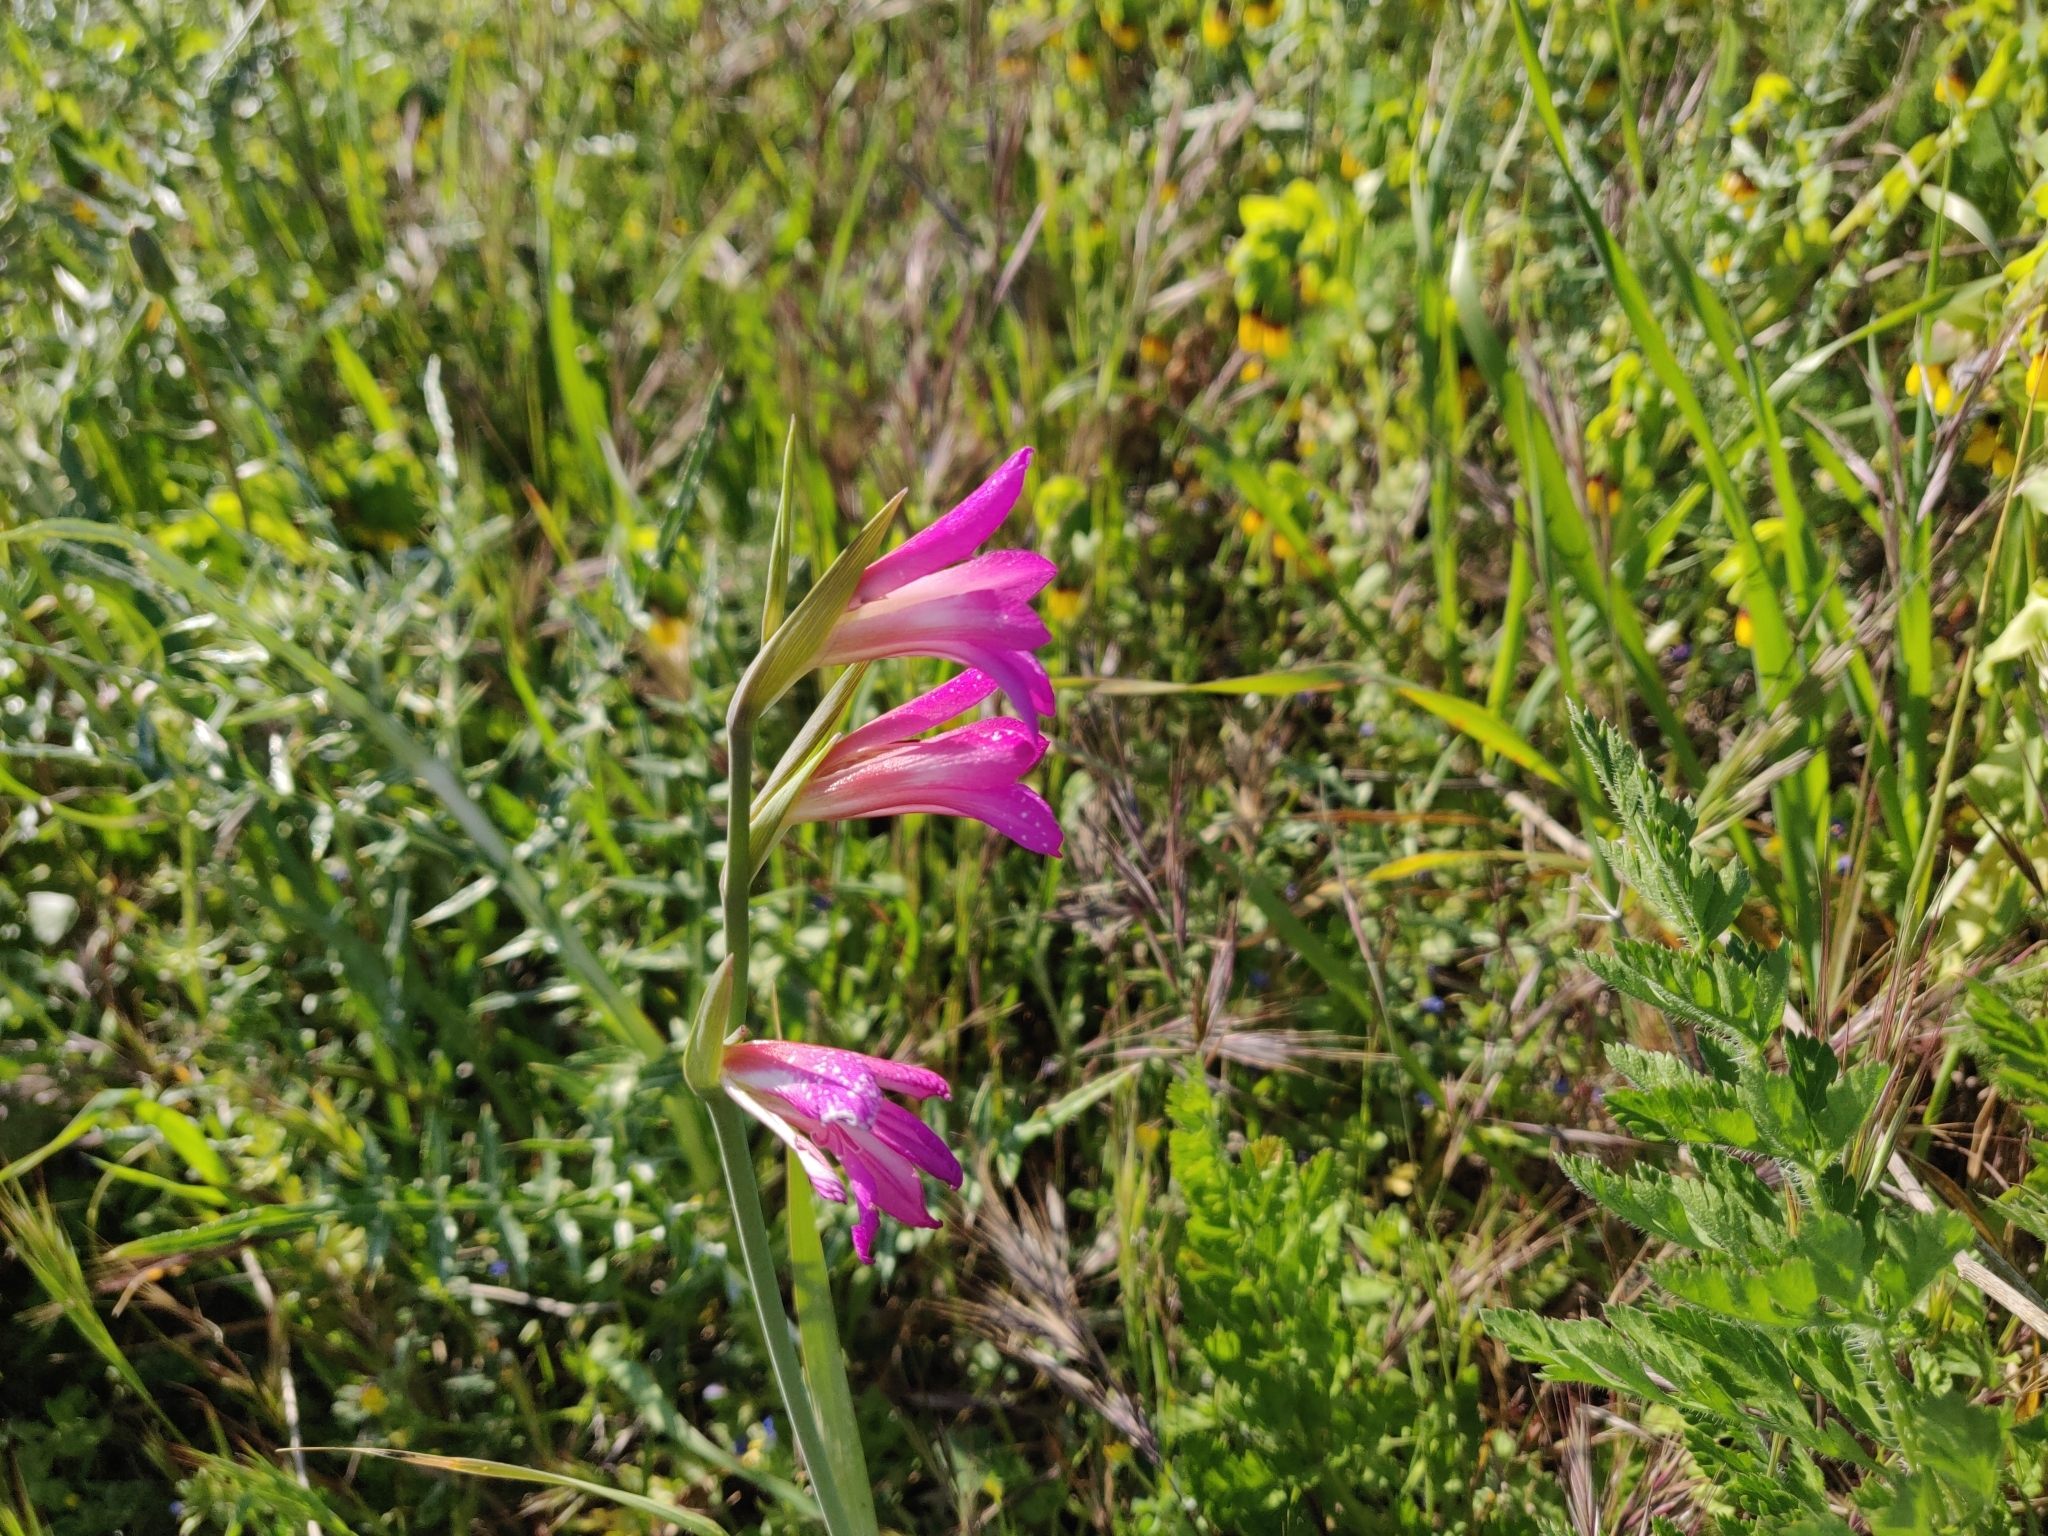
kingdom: Plantae
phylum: Tracheophyta
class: Liliopsida
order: Asparagales
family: Iridaceae
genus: Gladiolus
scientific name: Gladiolus italicus
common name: Field gladiolus
